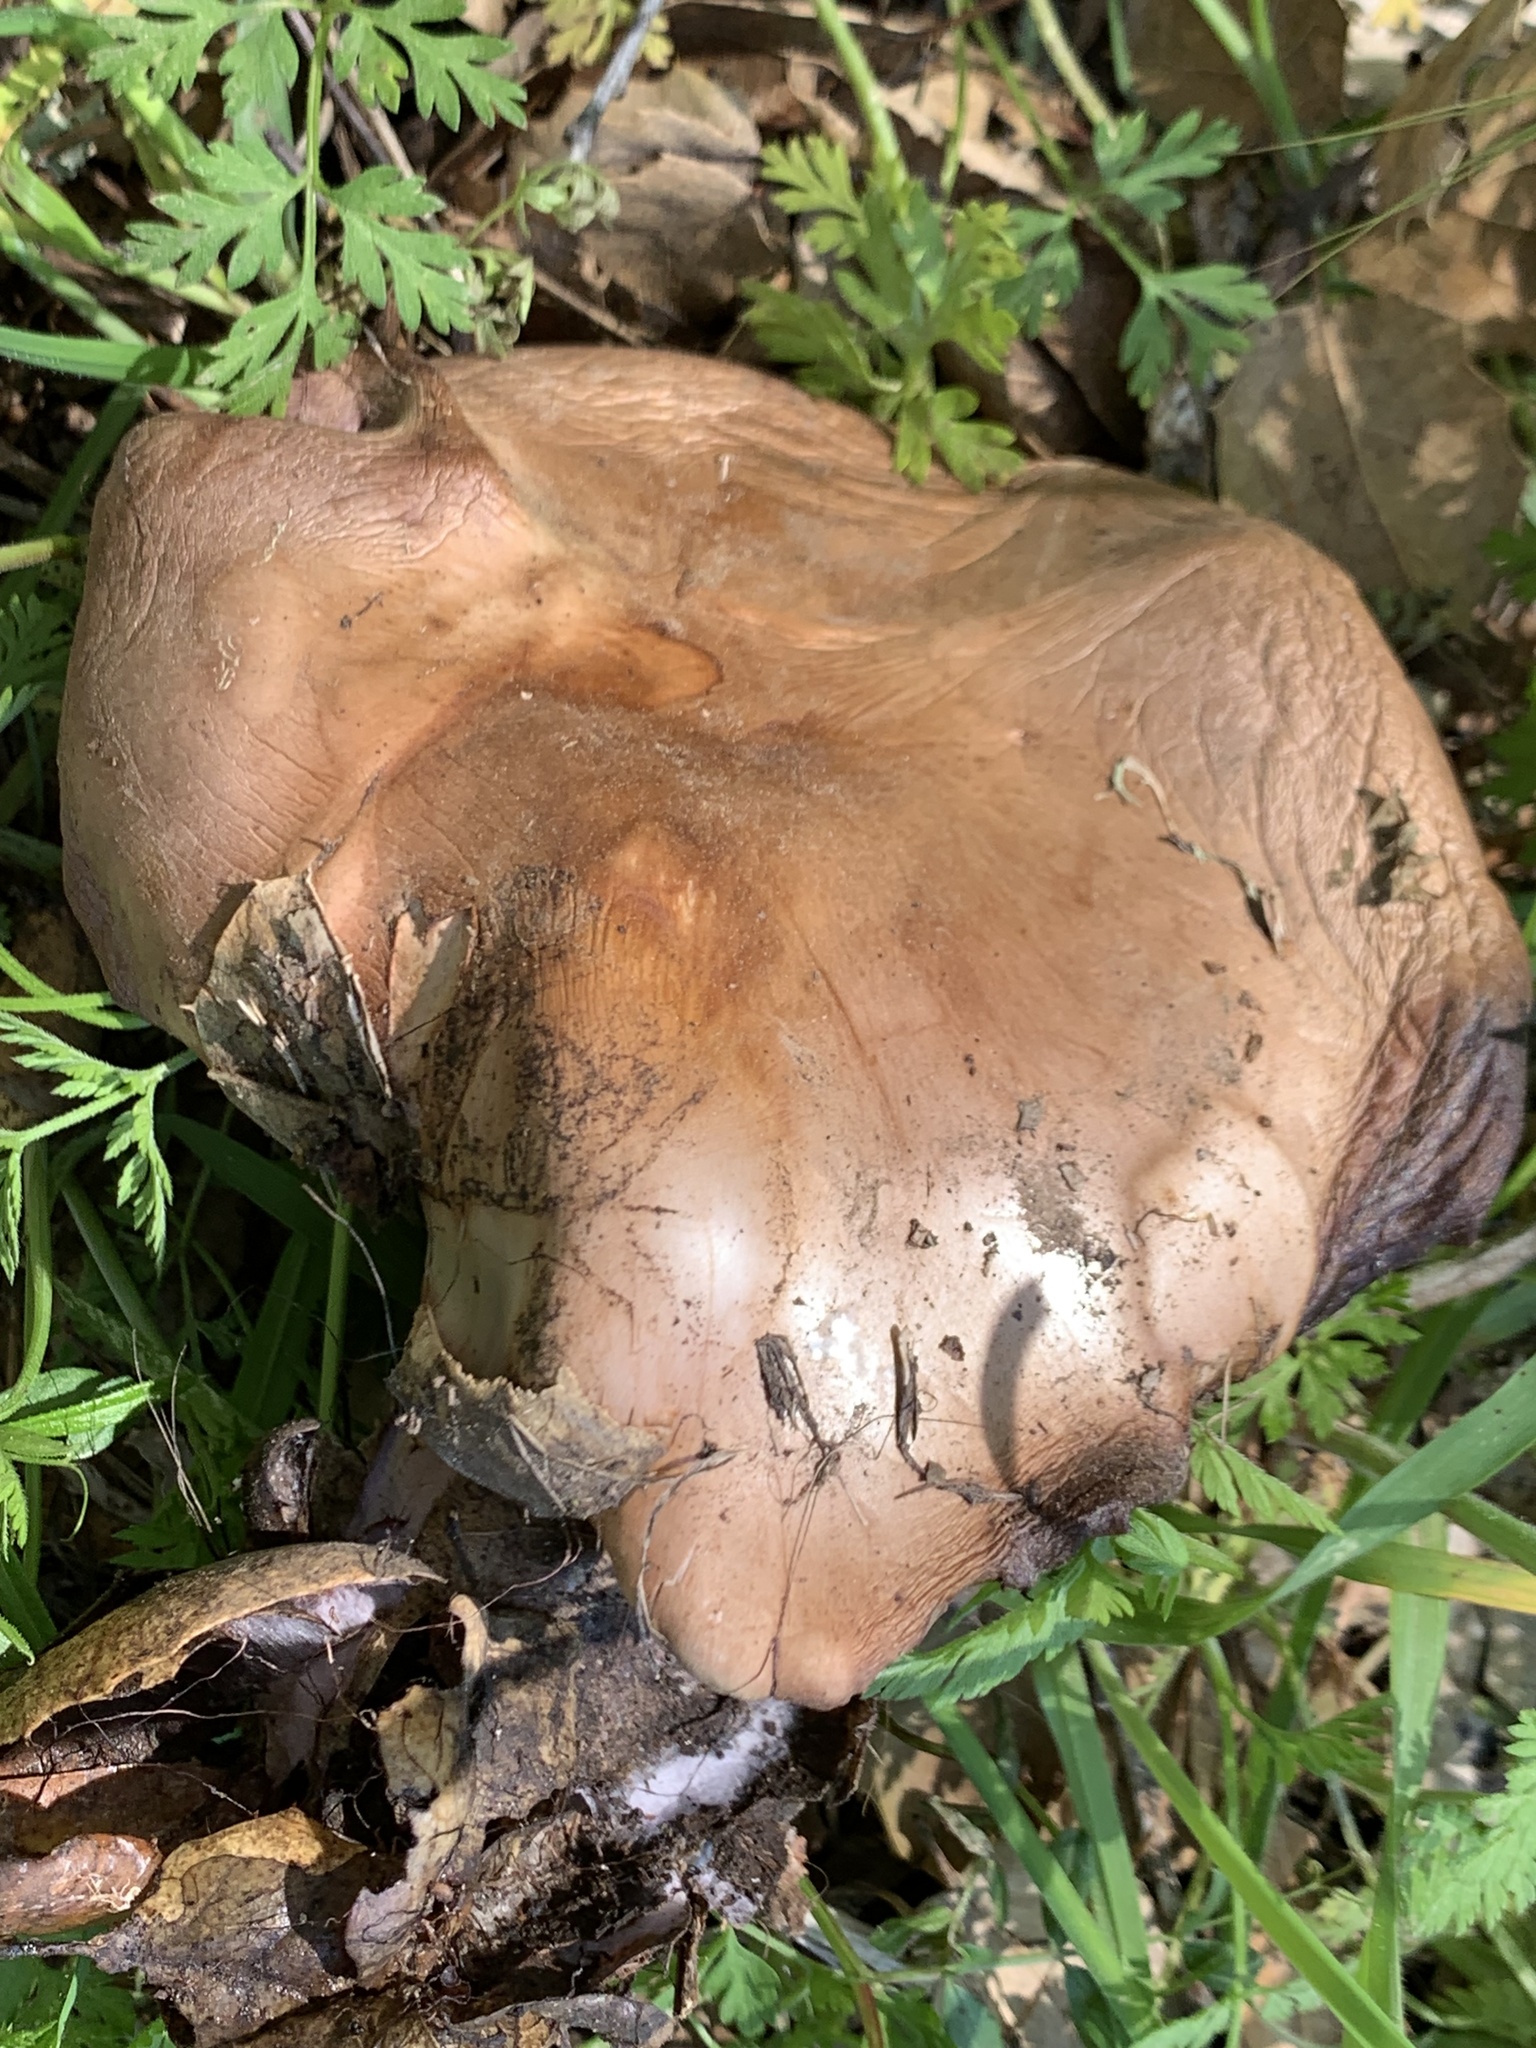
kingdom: Fungi
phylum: Basidiomycota
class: Agaricomycetes
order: Agaricales
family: Tricholomataceae
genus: Collybia
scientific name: Collybia
